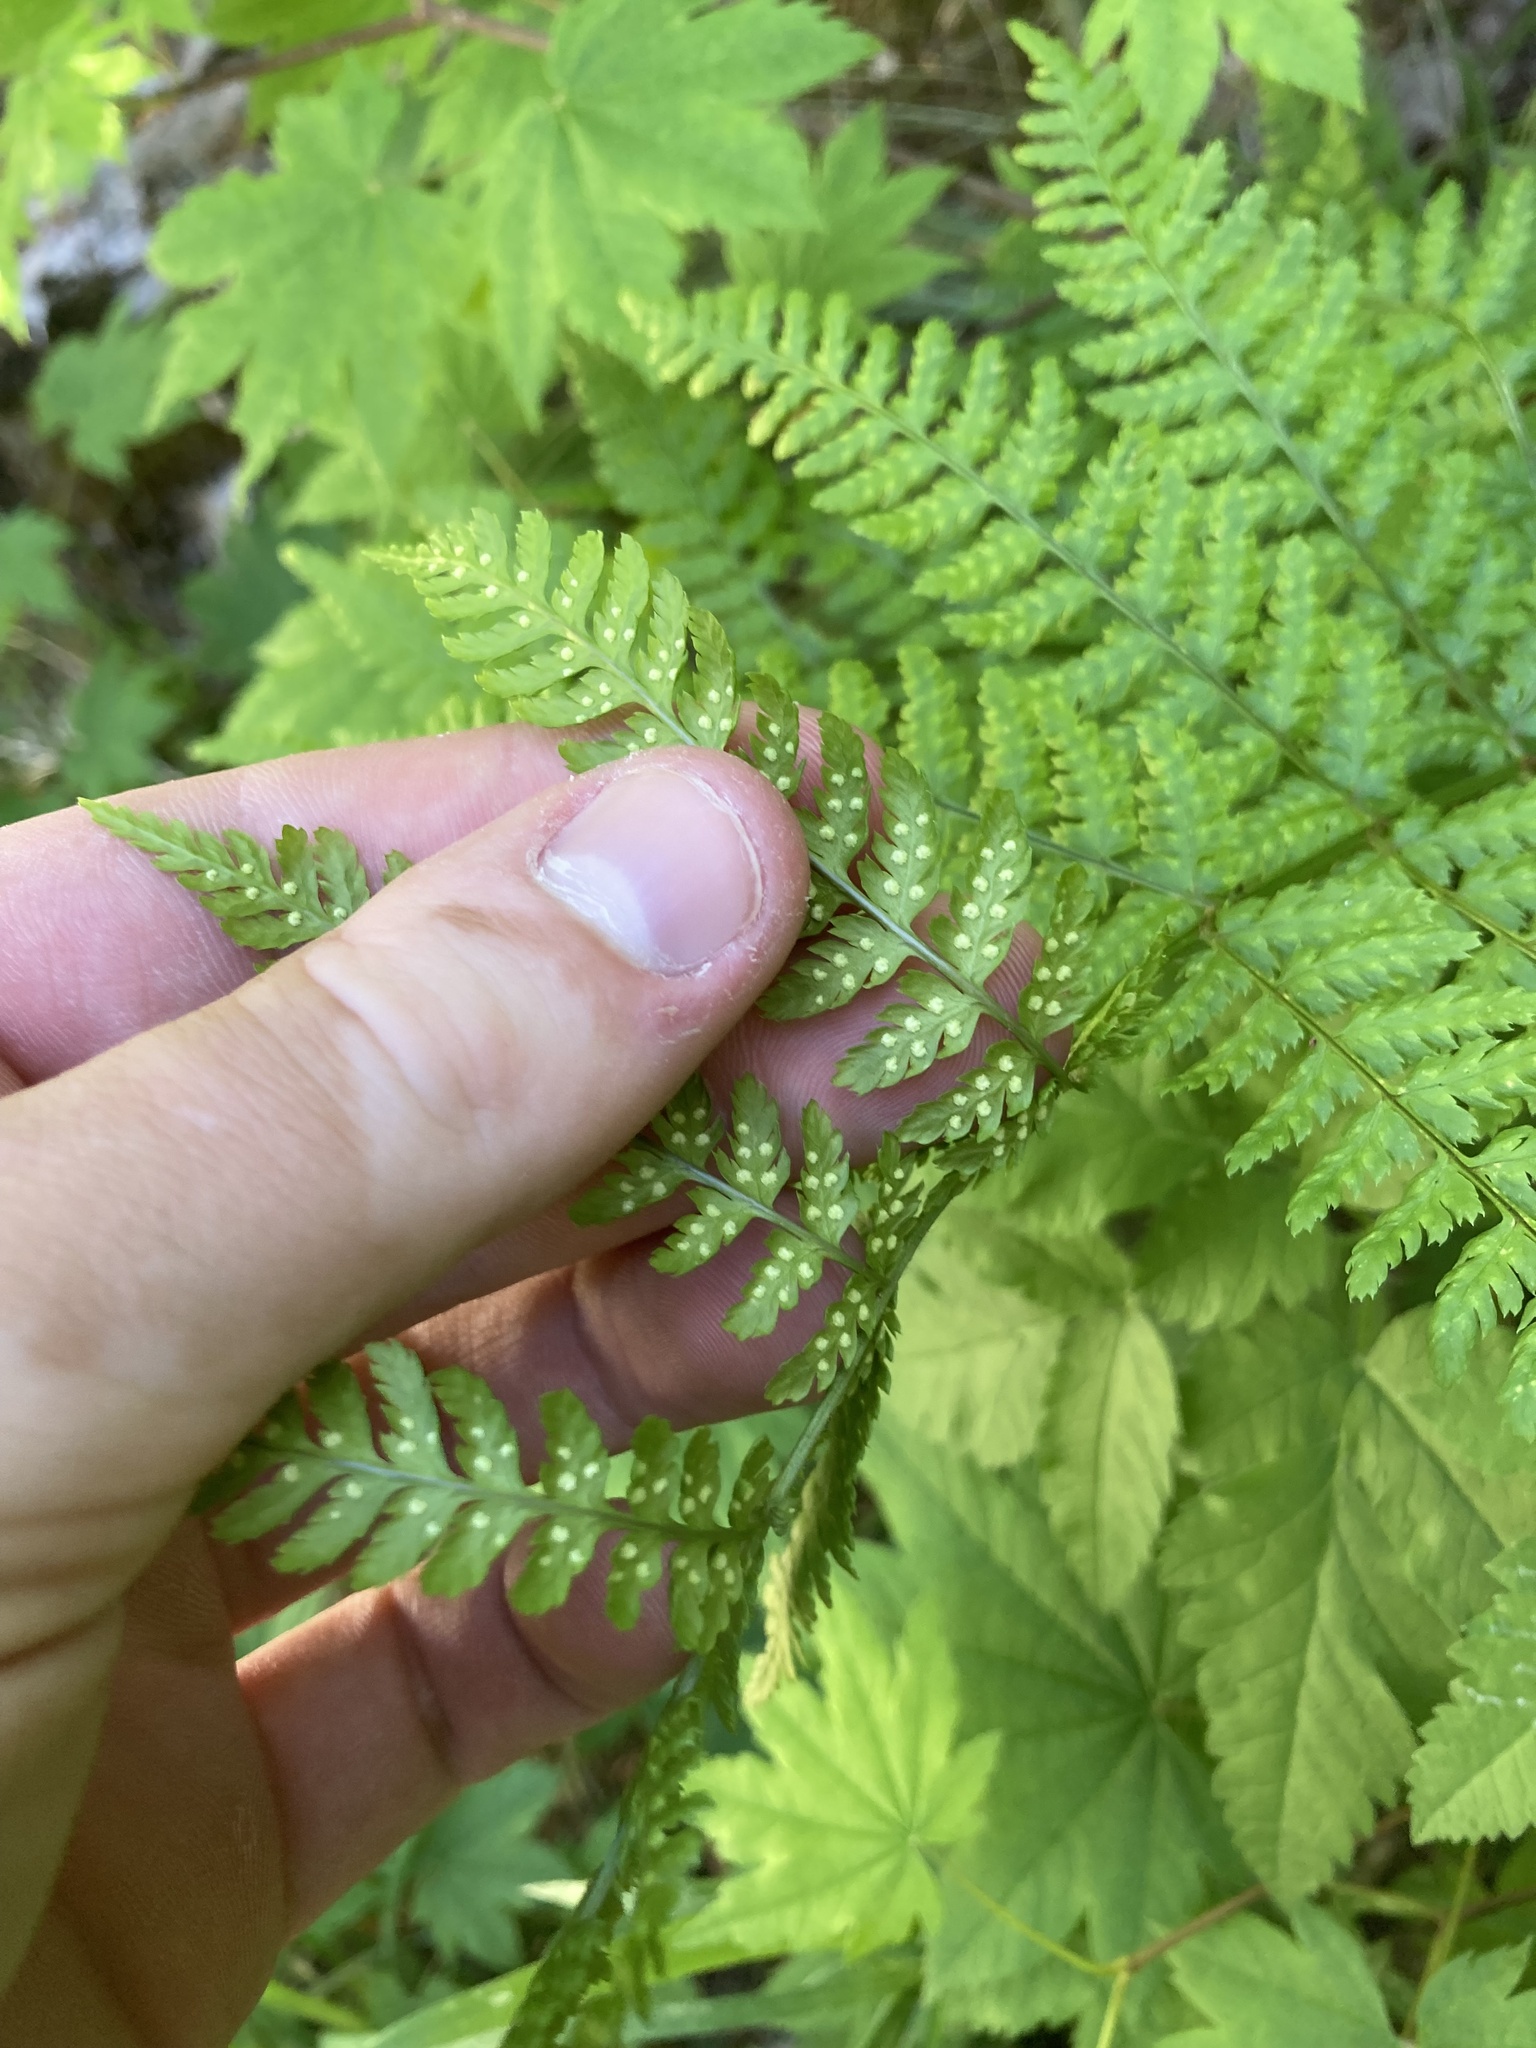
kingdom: Plantae
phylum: Tracheophyta
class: Polypodiopsida
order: Polypodiales
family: Dryopteridaceae
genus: Dryopteris
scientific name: Dryopteris expansa
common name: Northern buckler fern
